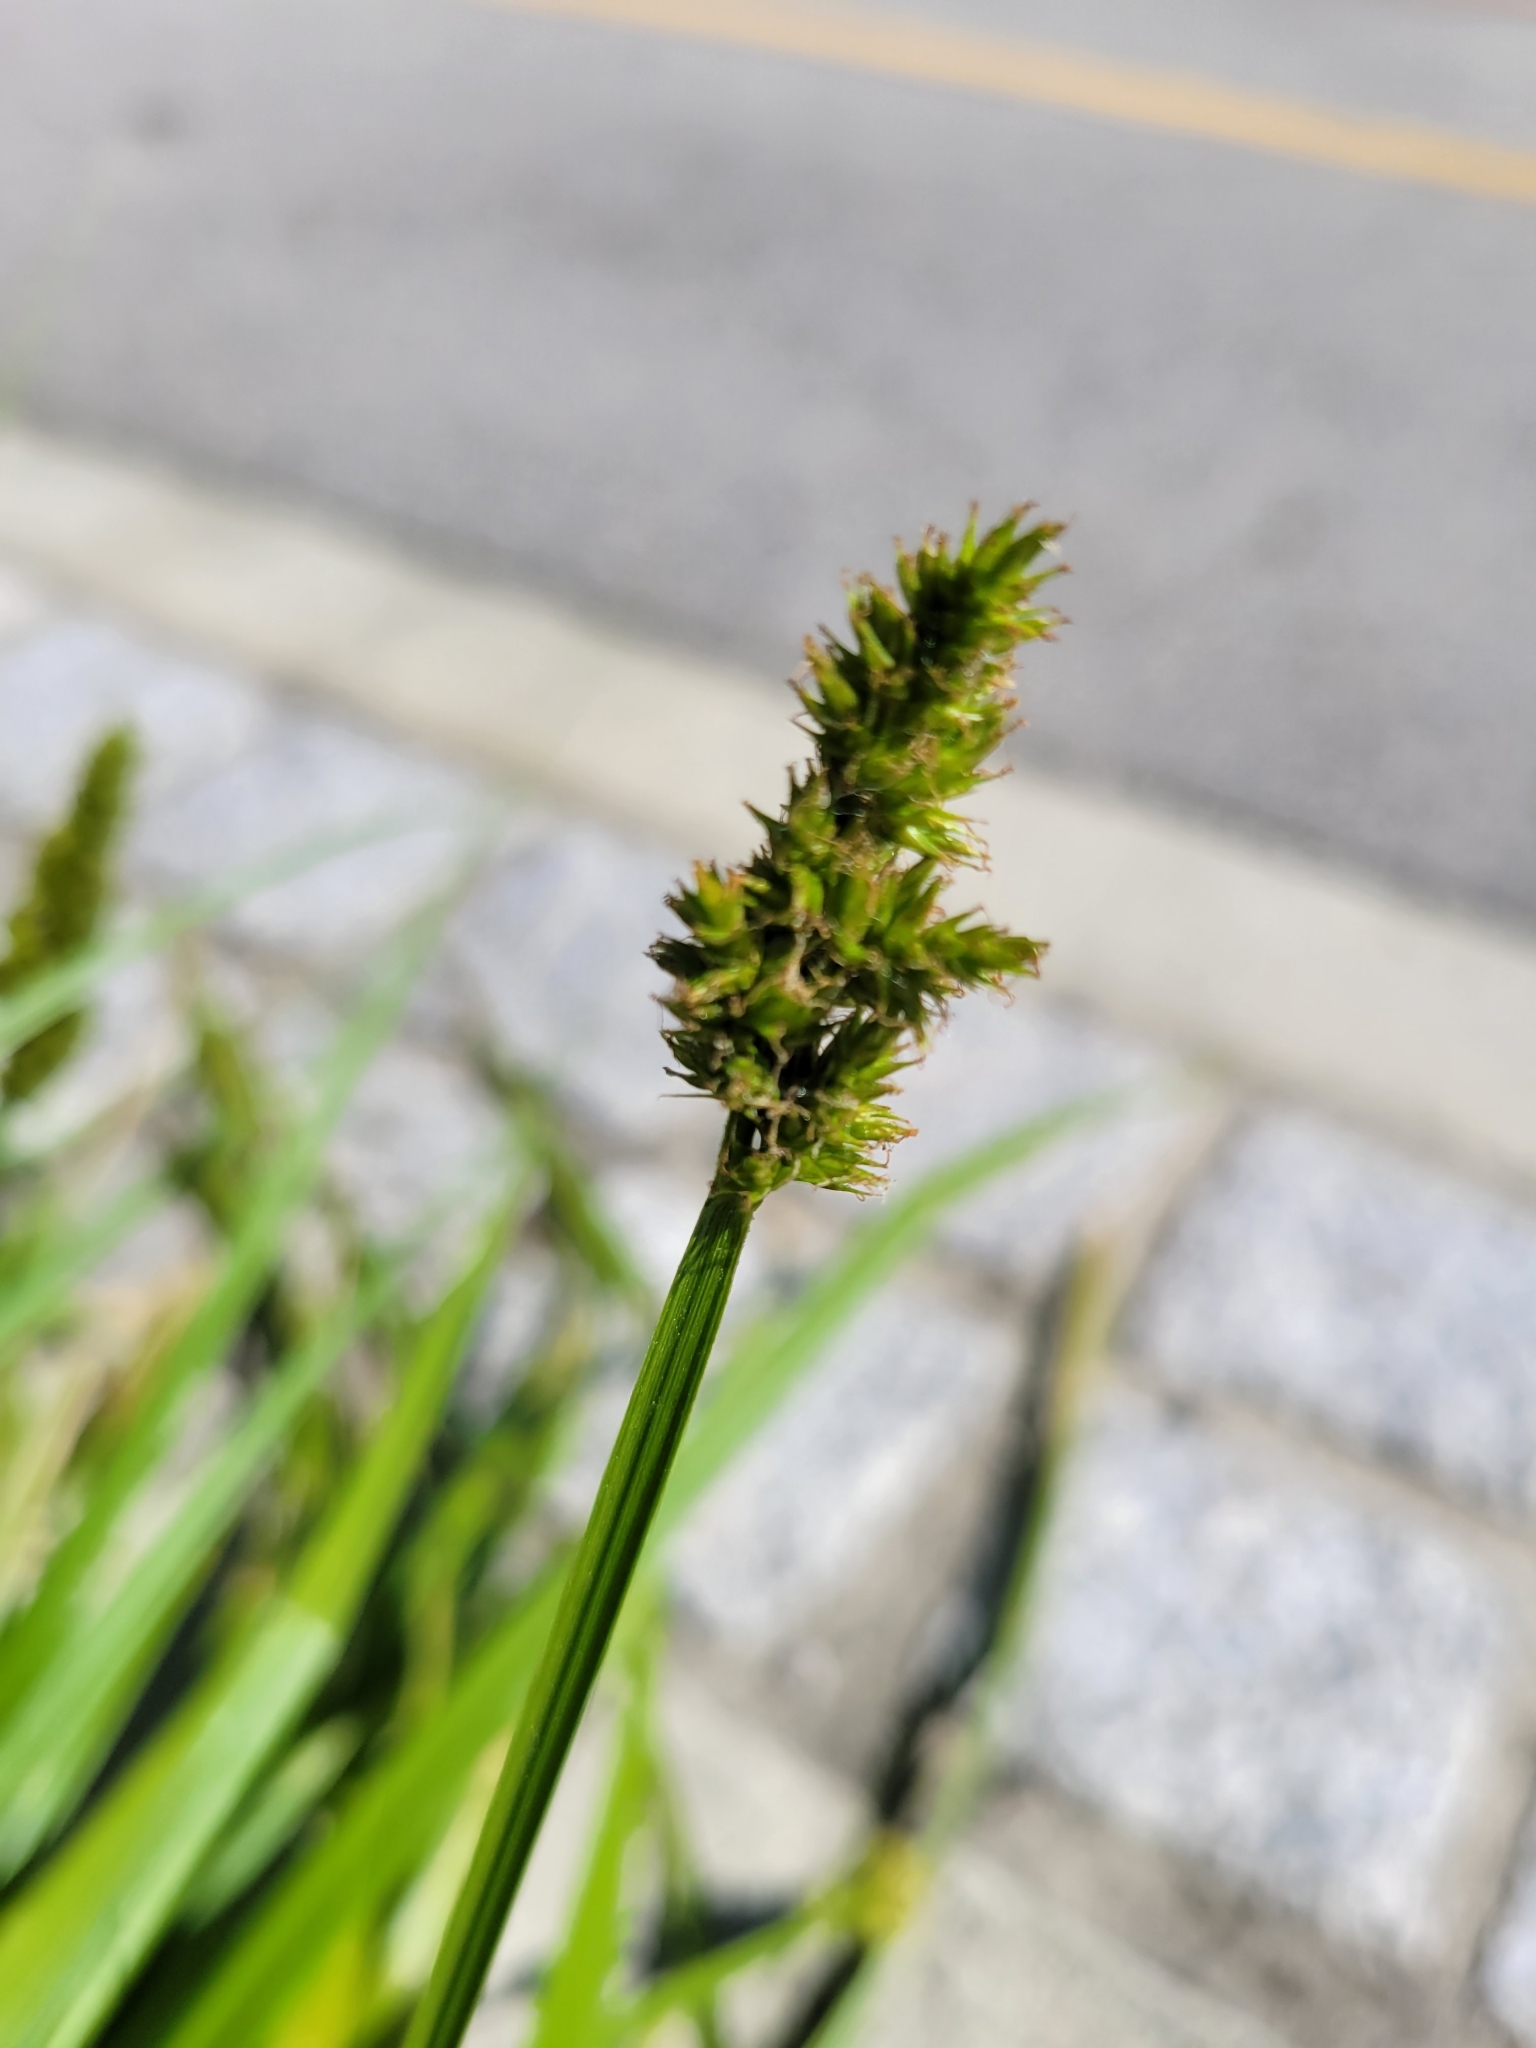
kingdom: Plantae
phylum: Tracheophyta
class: Liliopsida
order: Poales
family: Cyperaceae
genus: Carex
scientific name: Carex stipata
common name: Awl-fruited sedge
